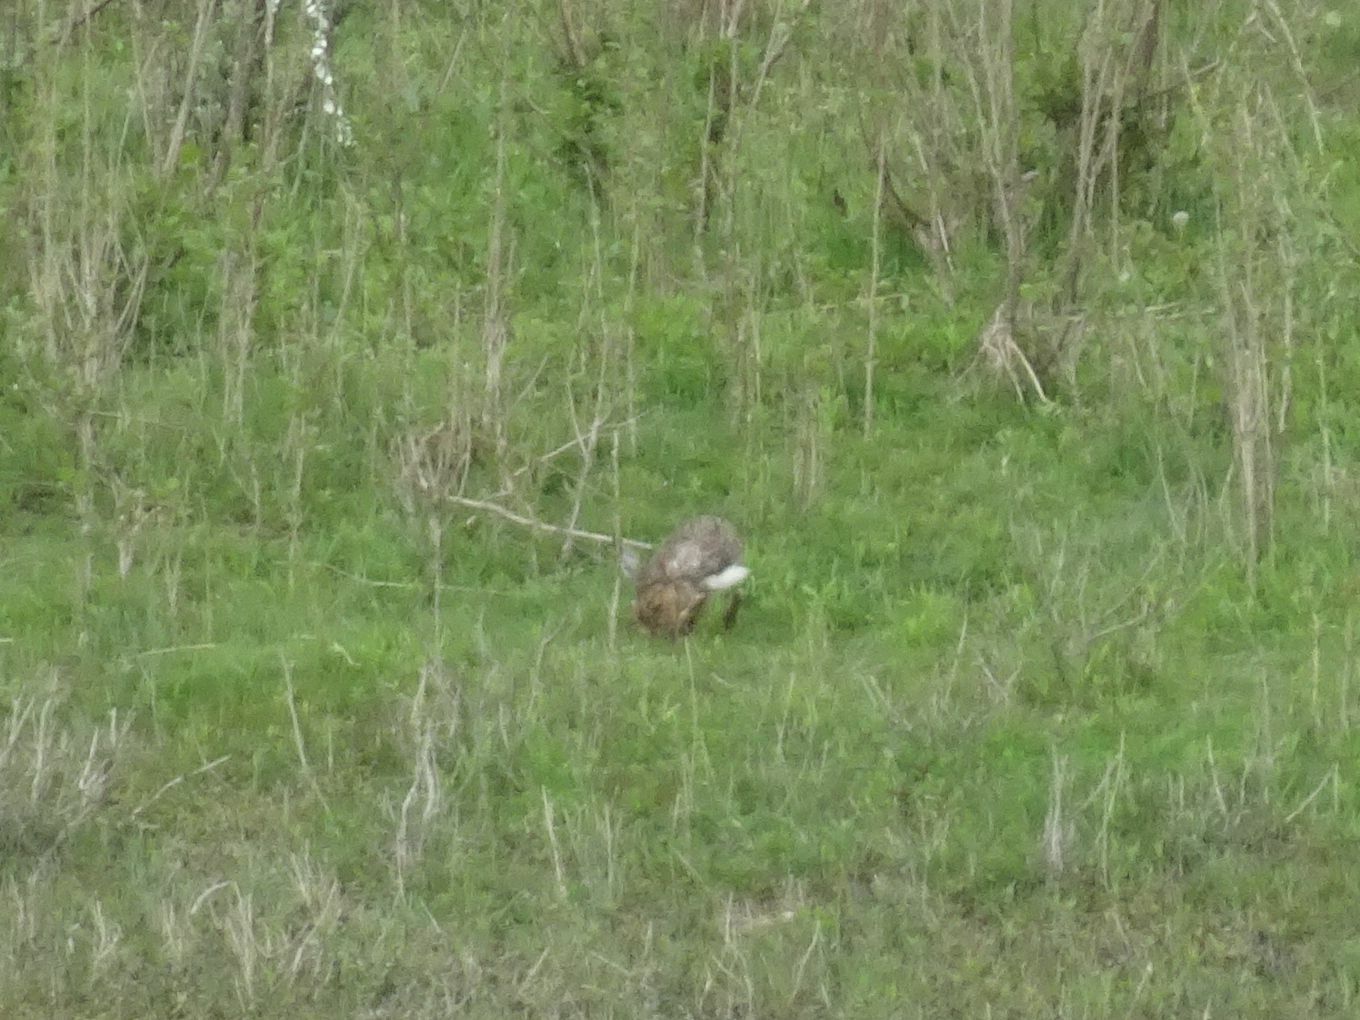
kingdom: Animalia
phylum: Chordata
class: Mammalia
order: Lagomorpha
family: Leporidae
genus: Lepus
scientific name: Lepus europaeus
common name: European hare
